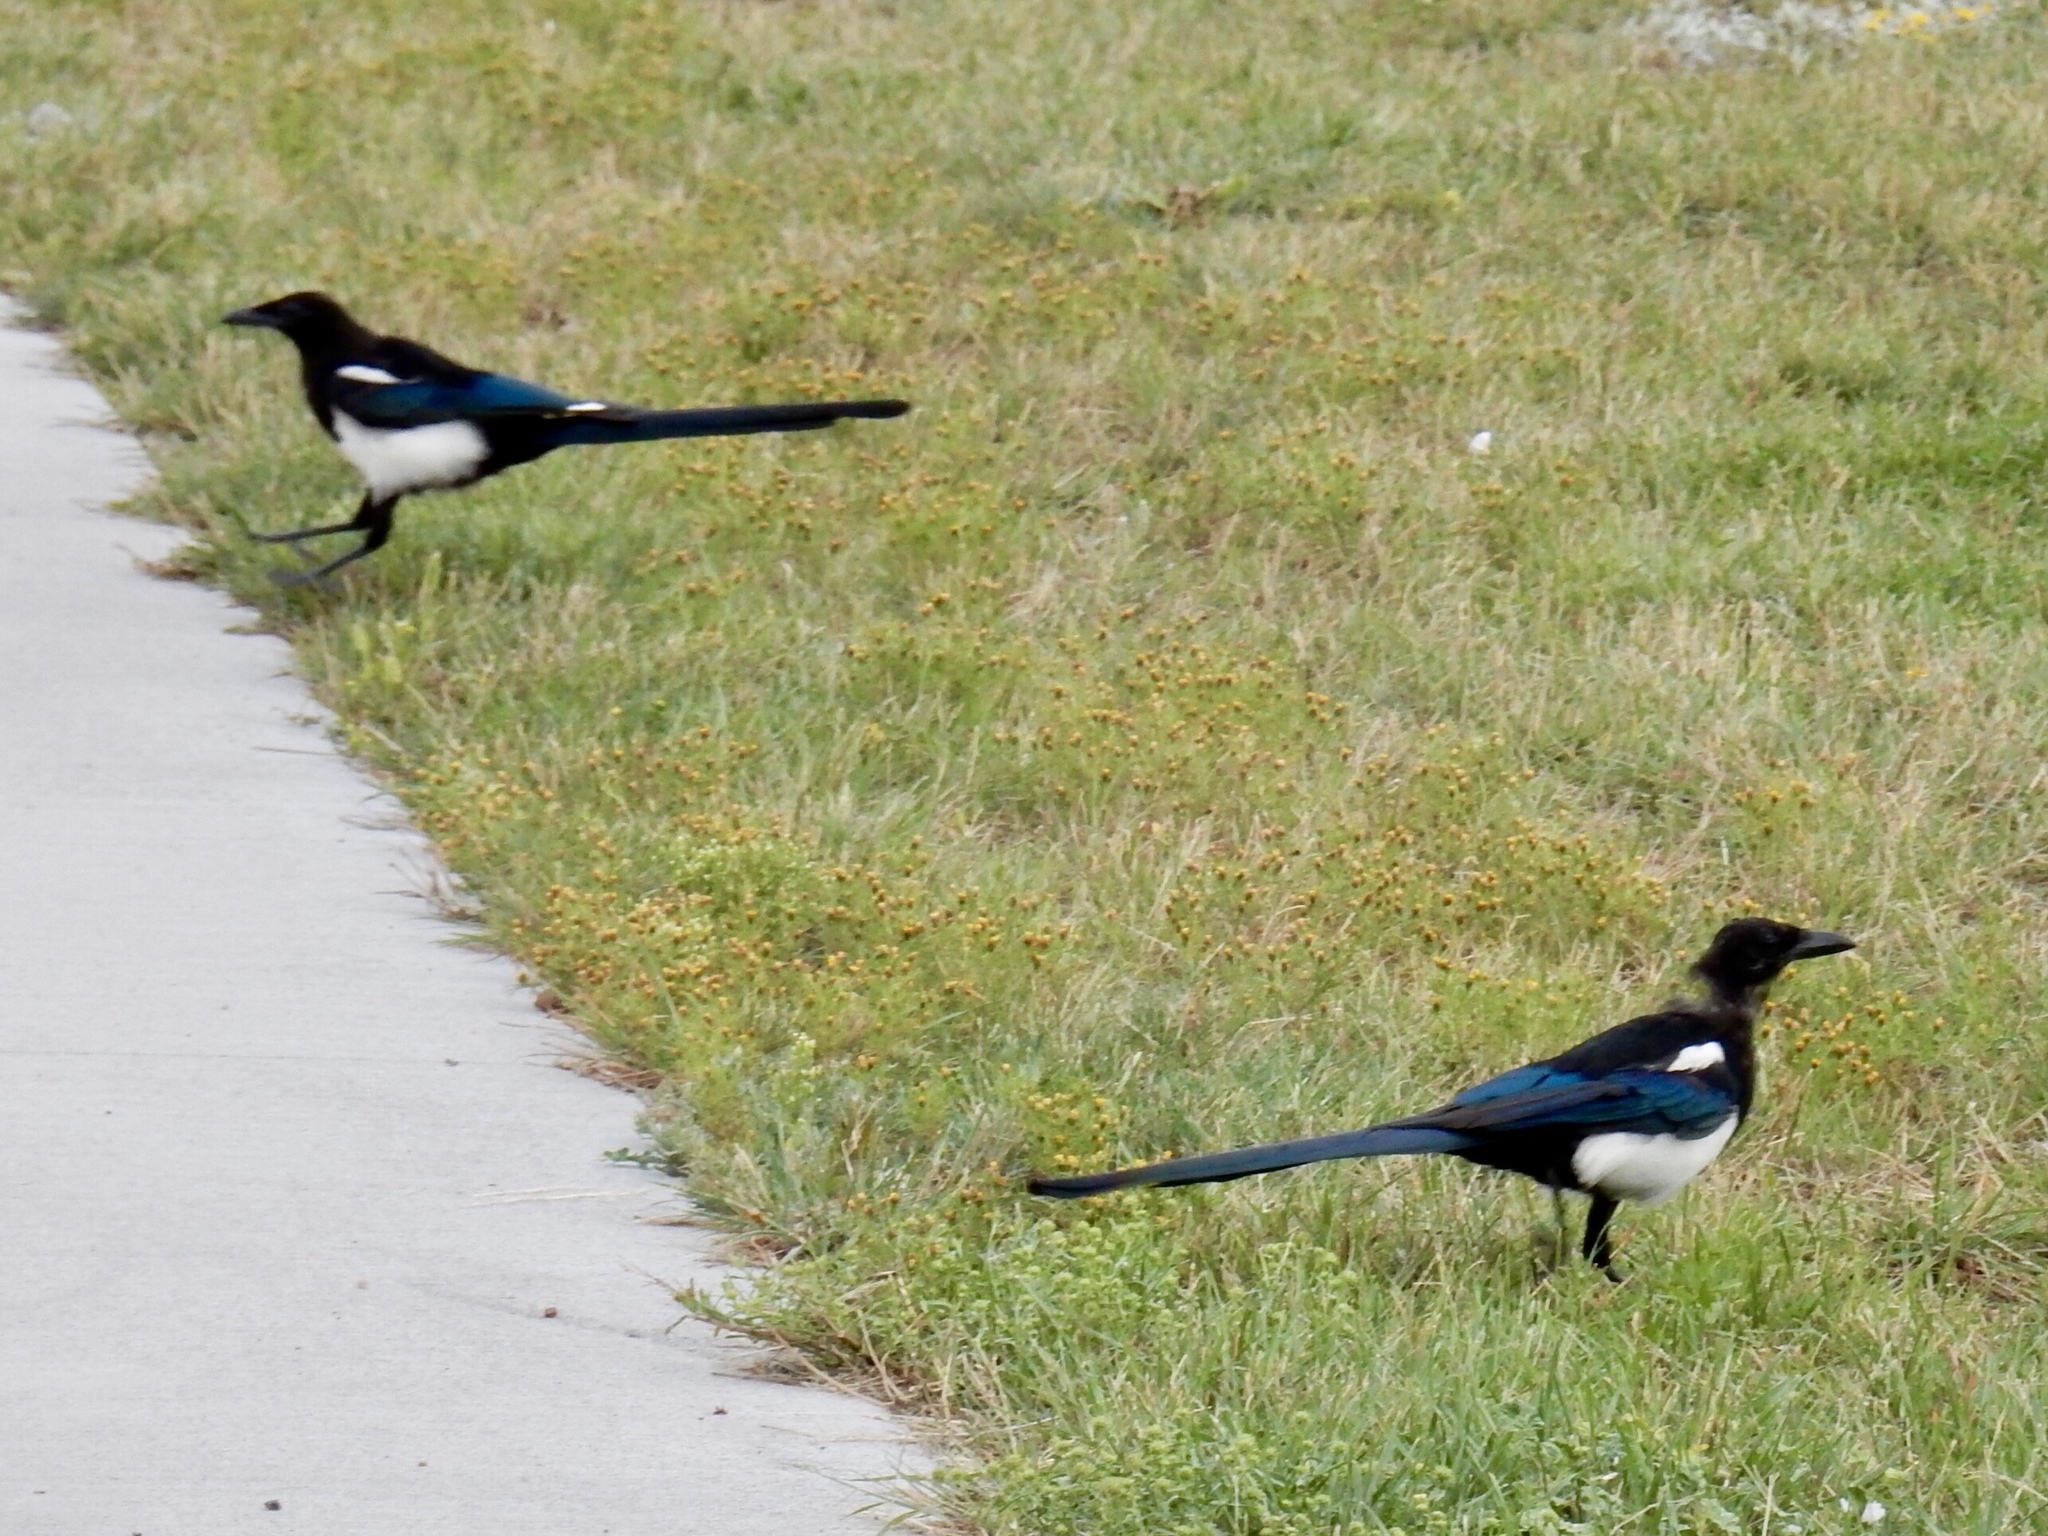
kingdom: Animalia
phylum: Chordata
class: Aves
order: Passeriformes
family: Corvidae
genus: Pica
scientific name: Pica hudsonia
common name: Black-billed magpie
